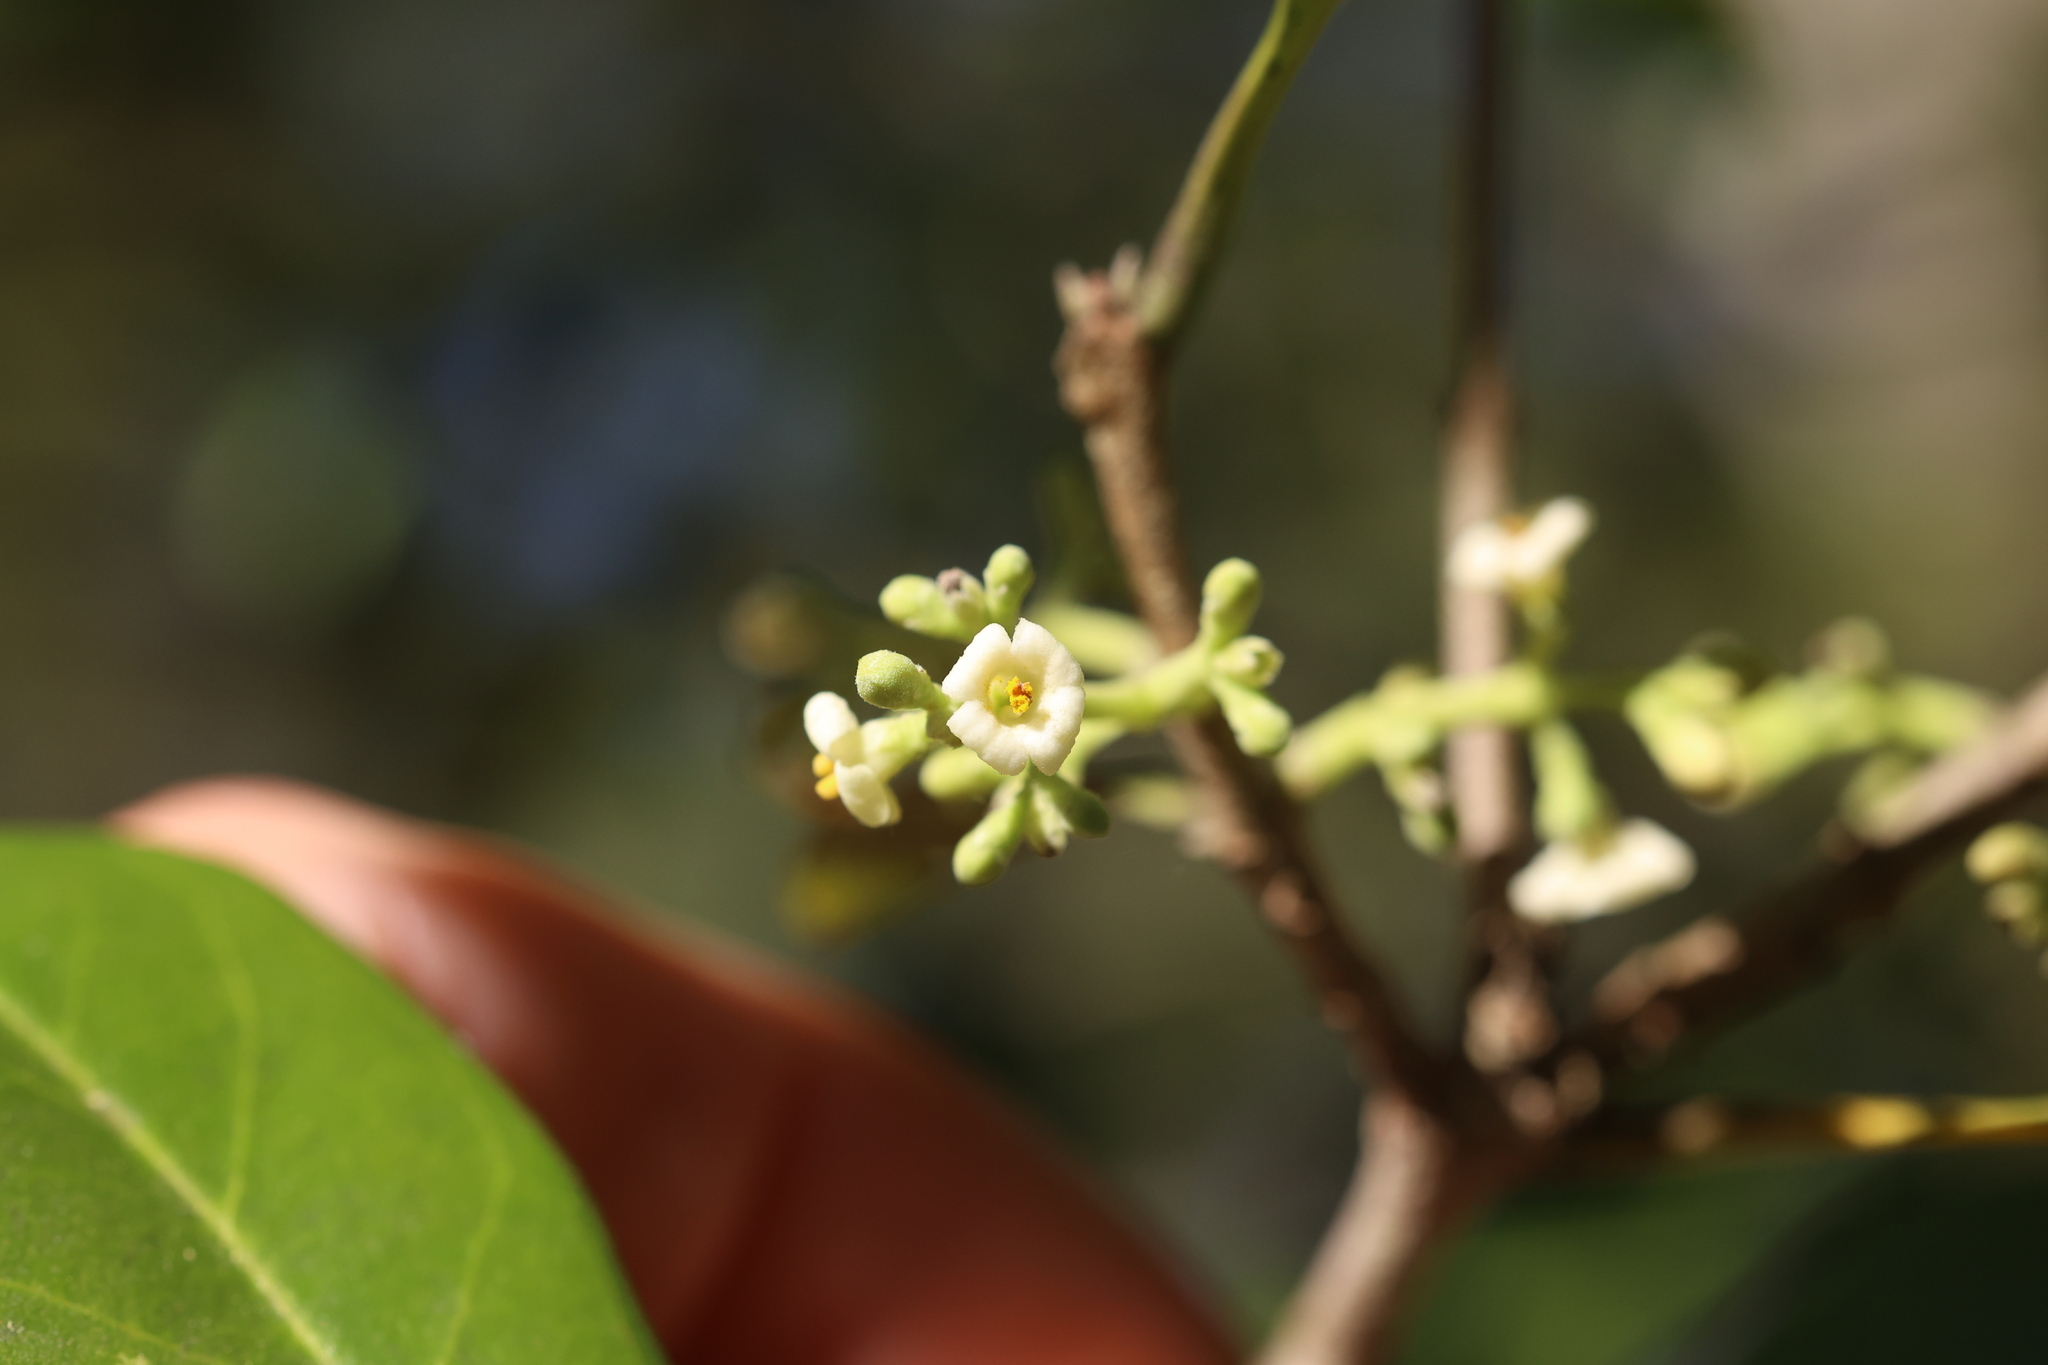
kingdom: Plantae
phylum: Tracheophyta
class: Magnoliopsida
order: Lamiales
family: Oleaceae
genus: Cartrema
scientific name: Cartrema americana
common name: Devilwood
